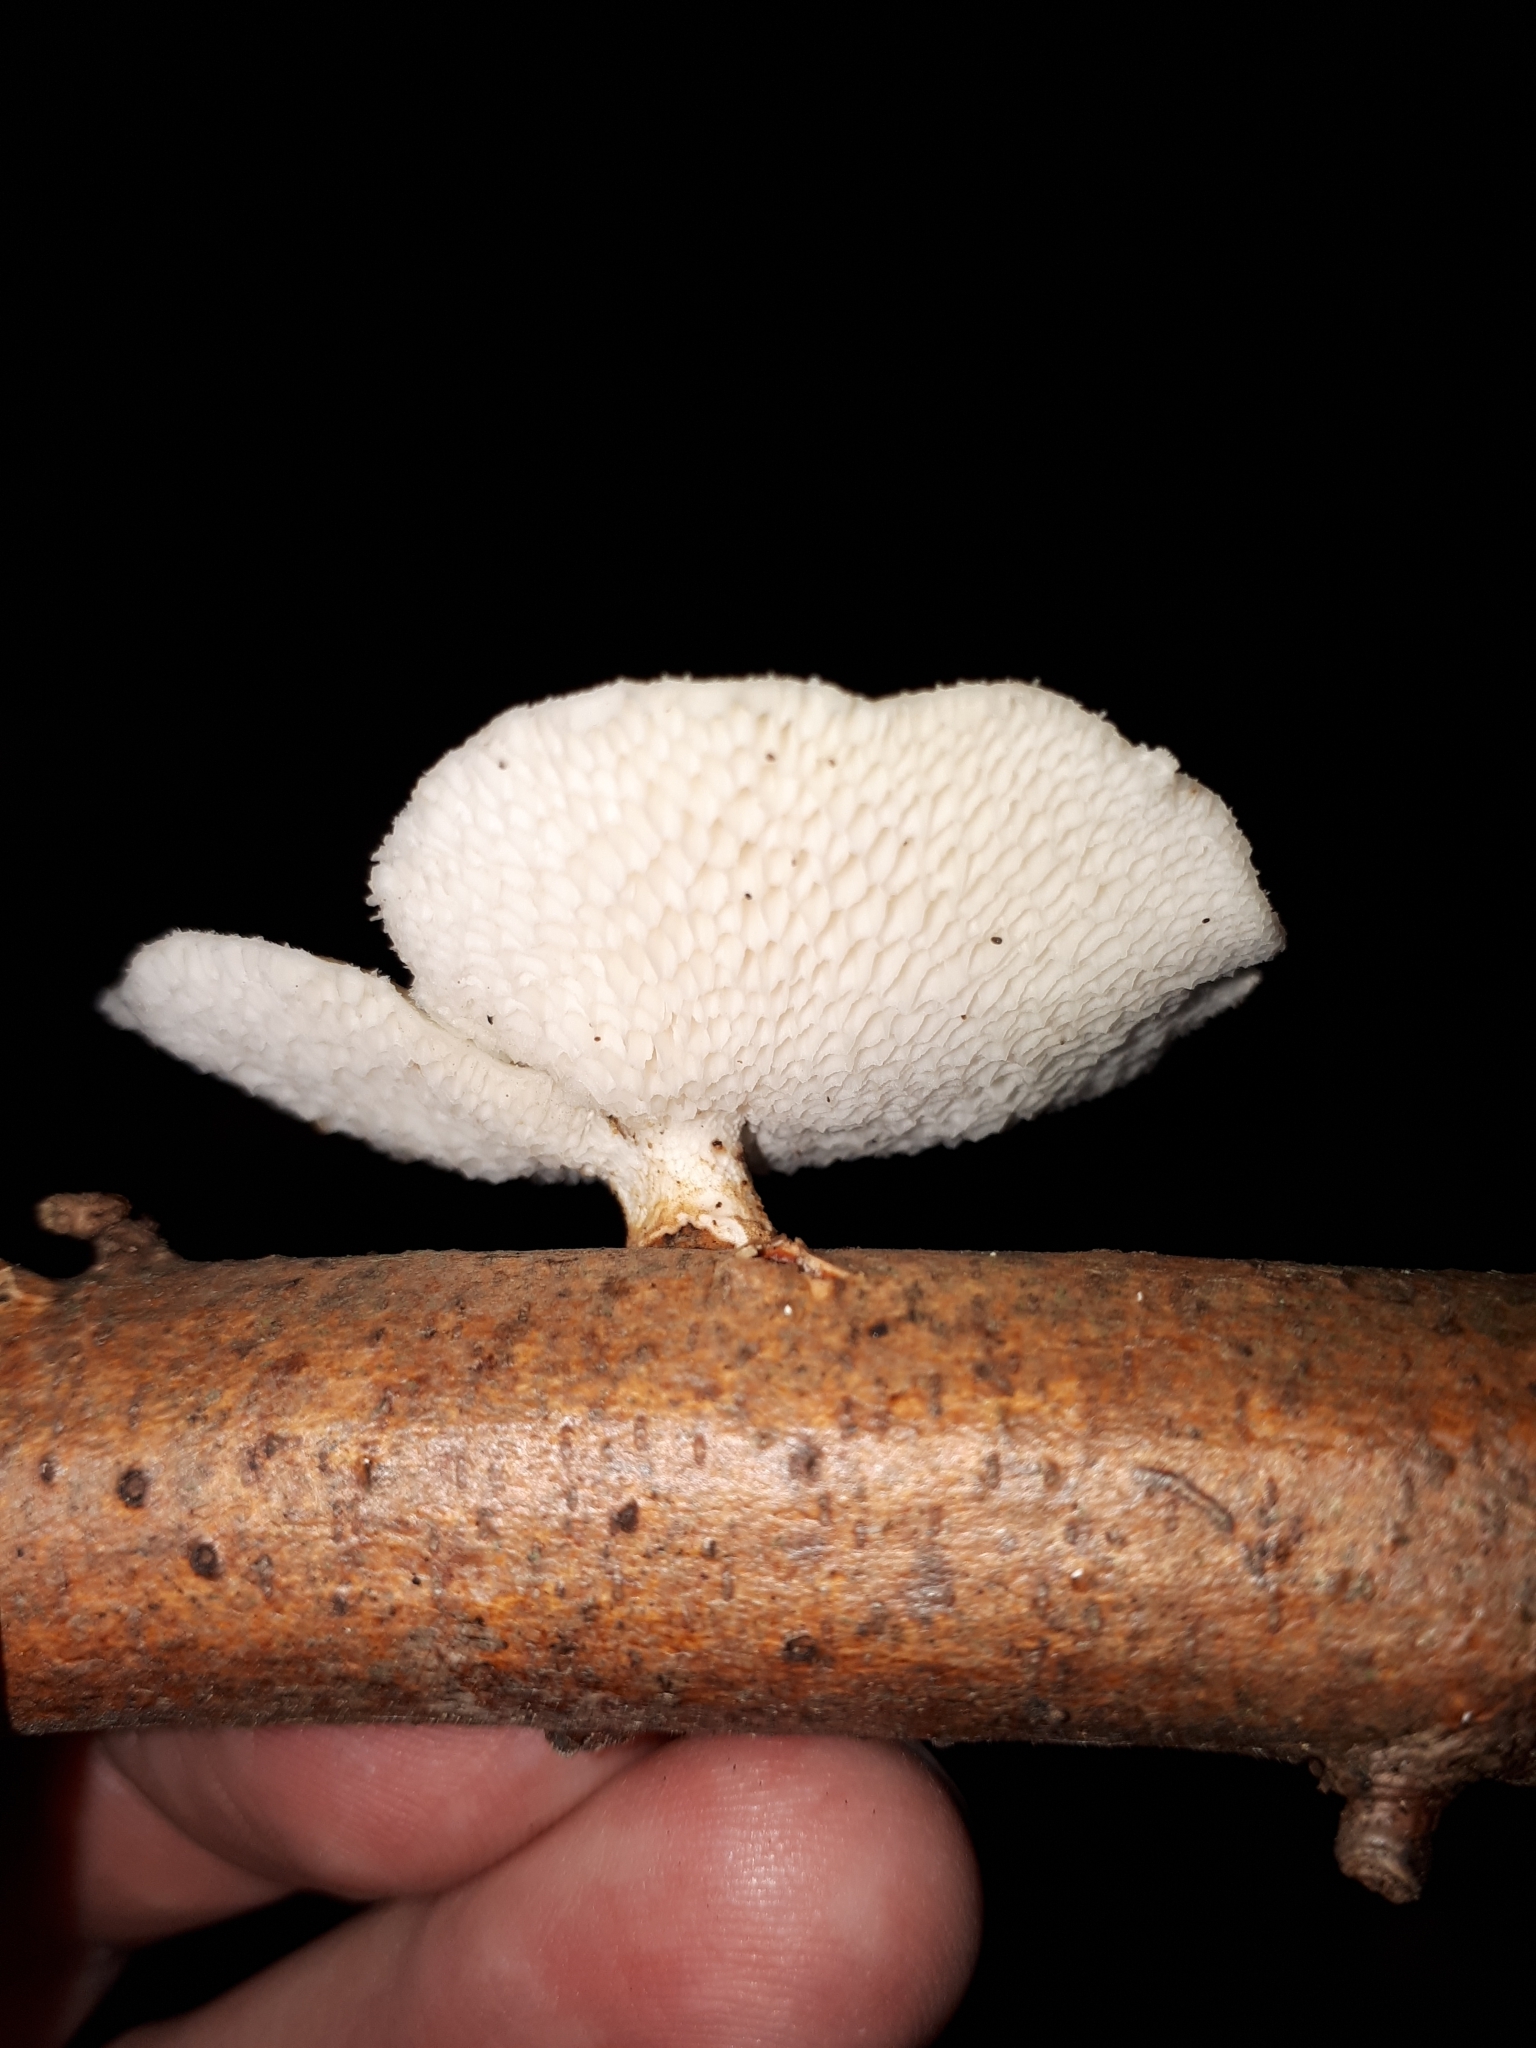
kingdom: Fungi
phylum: Basidiomycota
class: Agaricomycetes
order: Polyporales
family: Polyporaceae
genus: Neofavolus
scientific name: Neofavolus alveolaris
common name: Hexagonal-pored polypore
